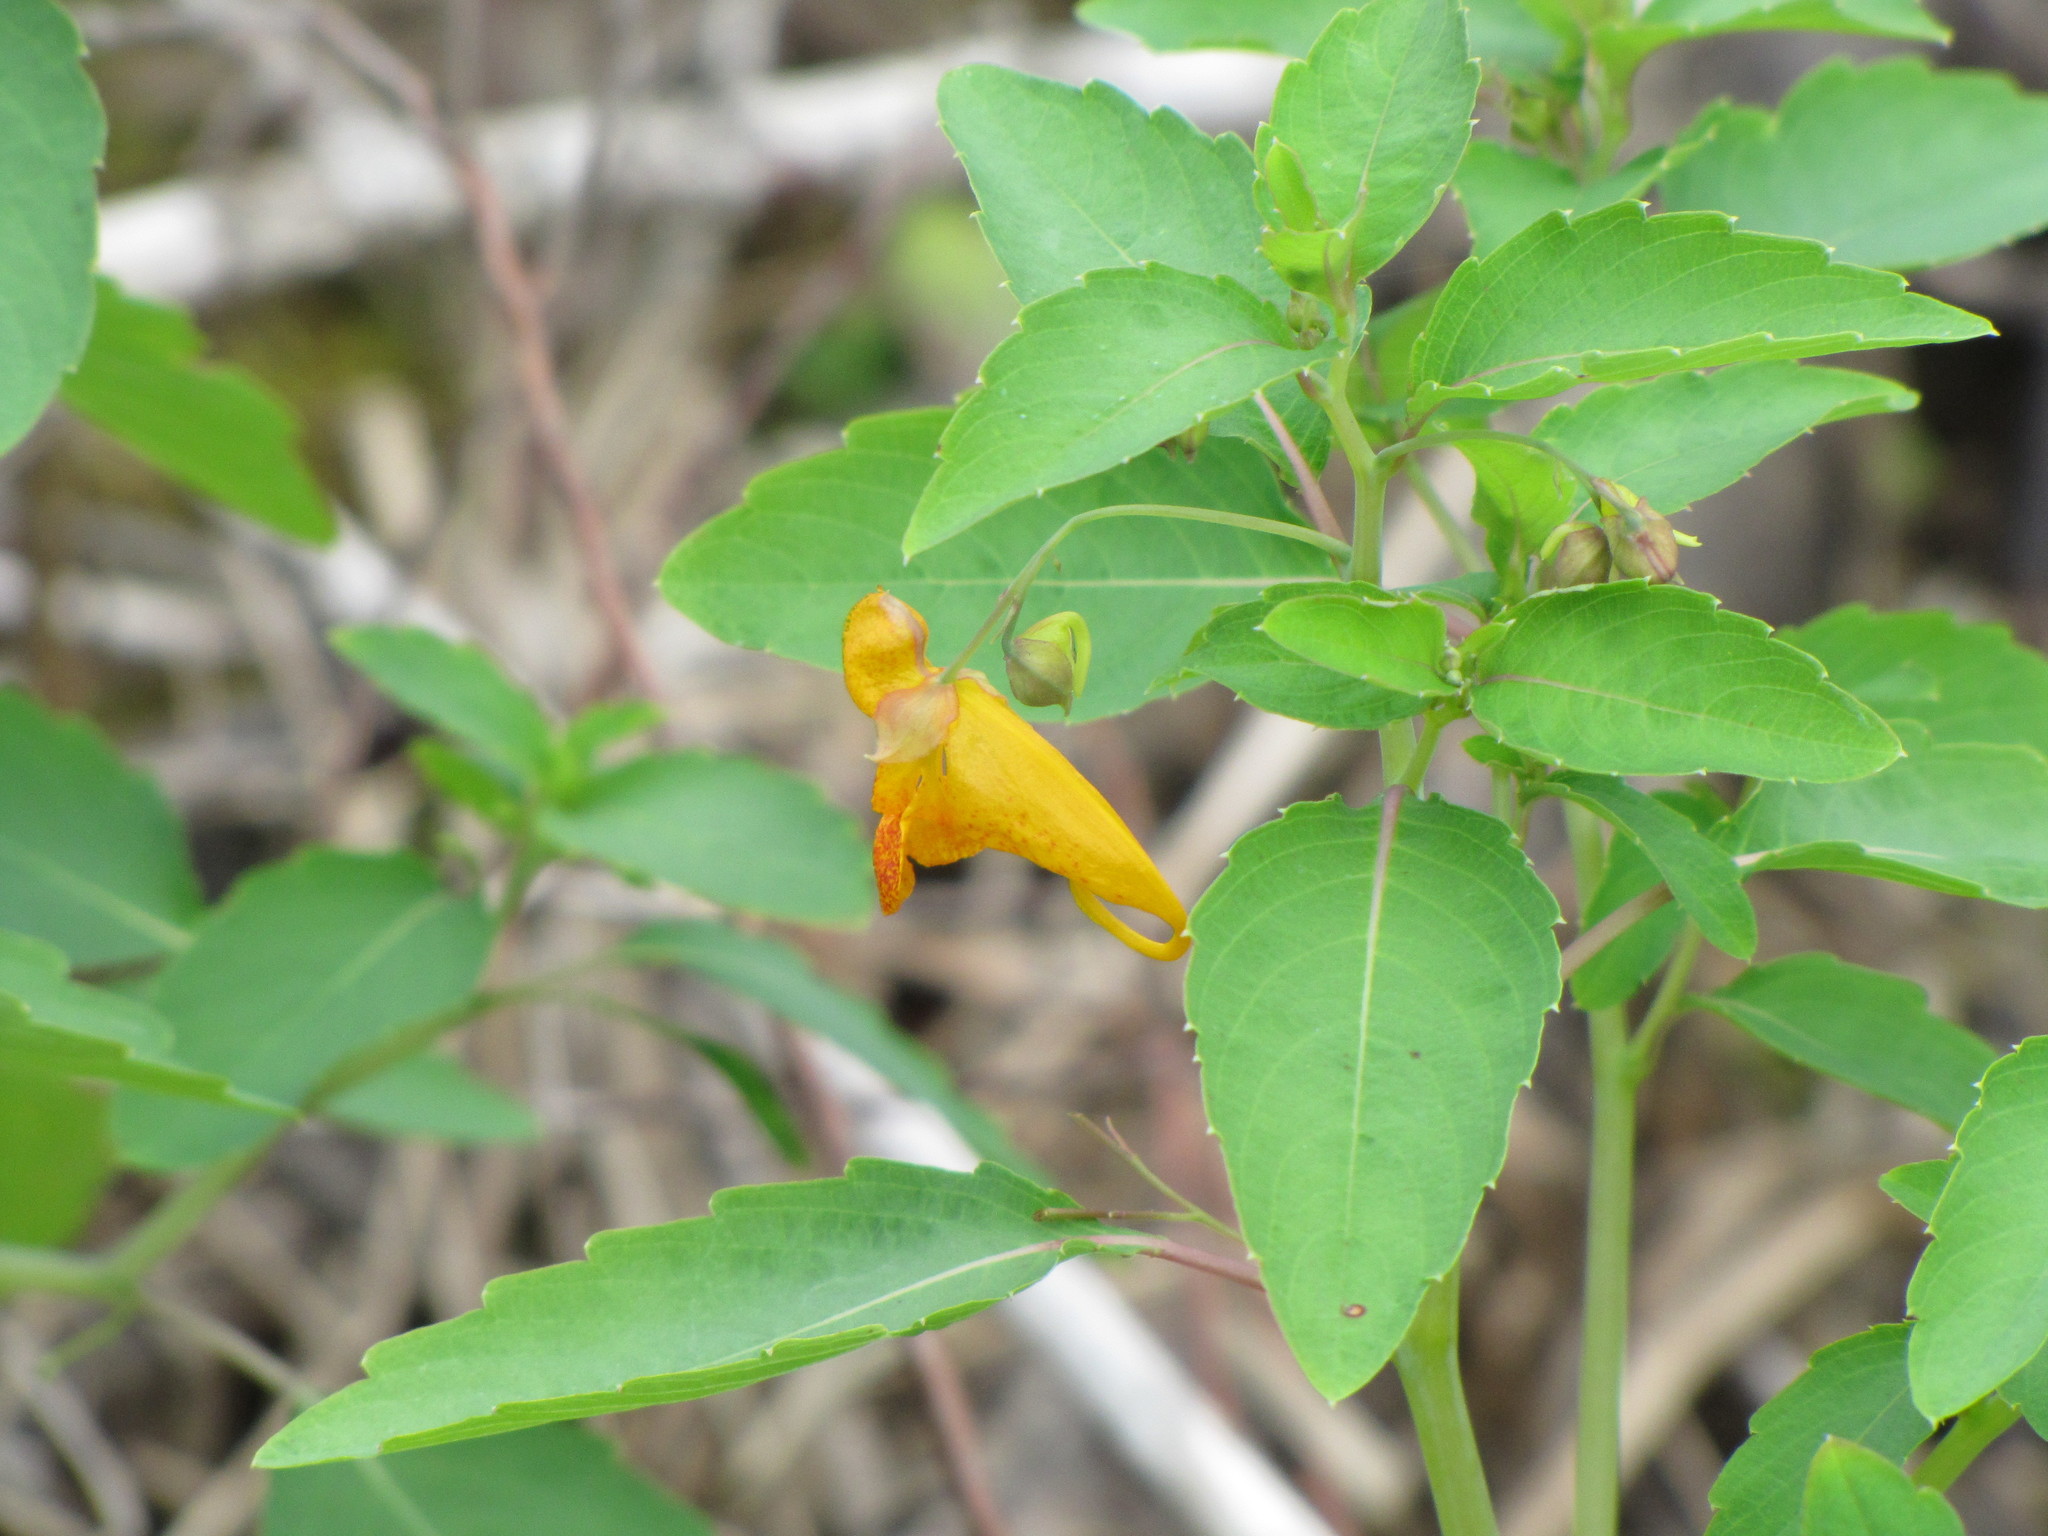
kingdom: Plantae
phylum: Tracheophyta
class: Magnoliopsida
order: Ericales
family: Balsaminaceae
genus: Impatiens
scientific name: Impatiens capensis
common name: Orange balsam
